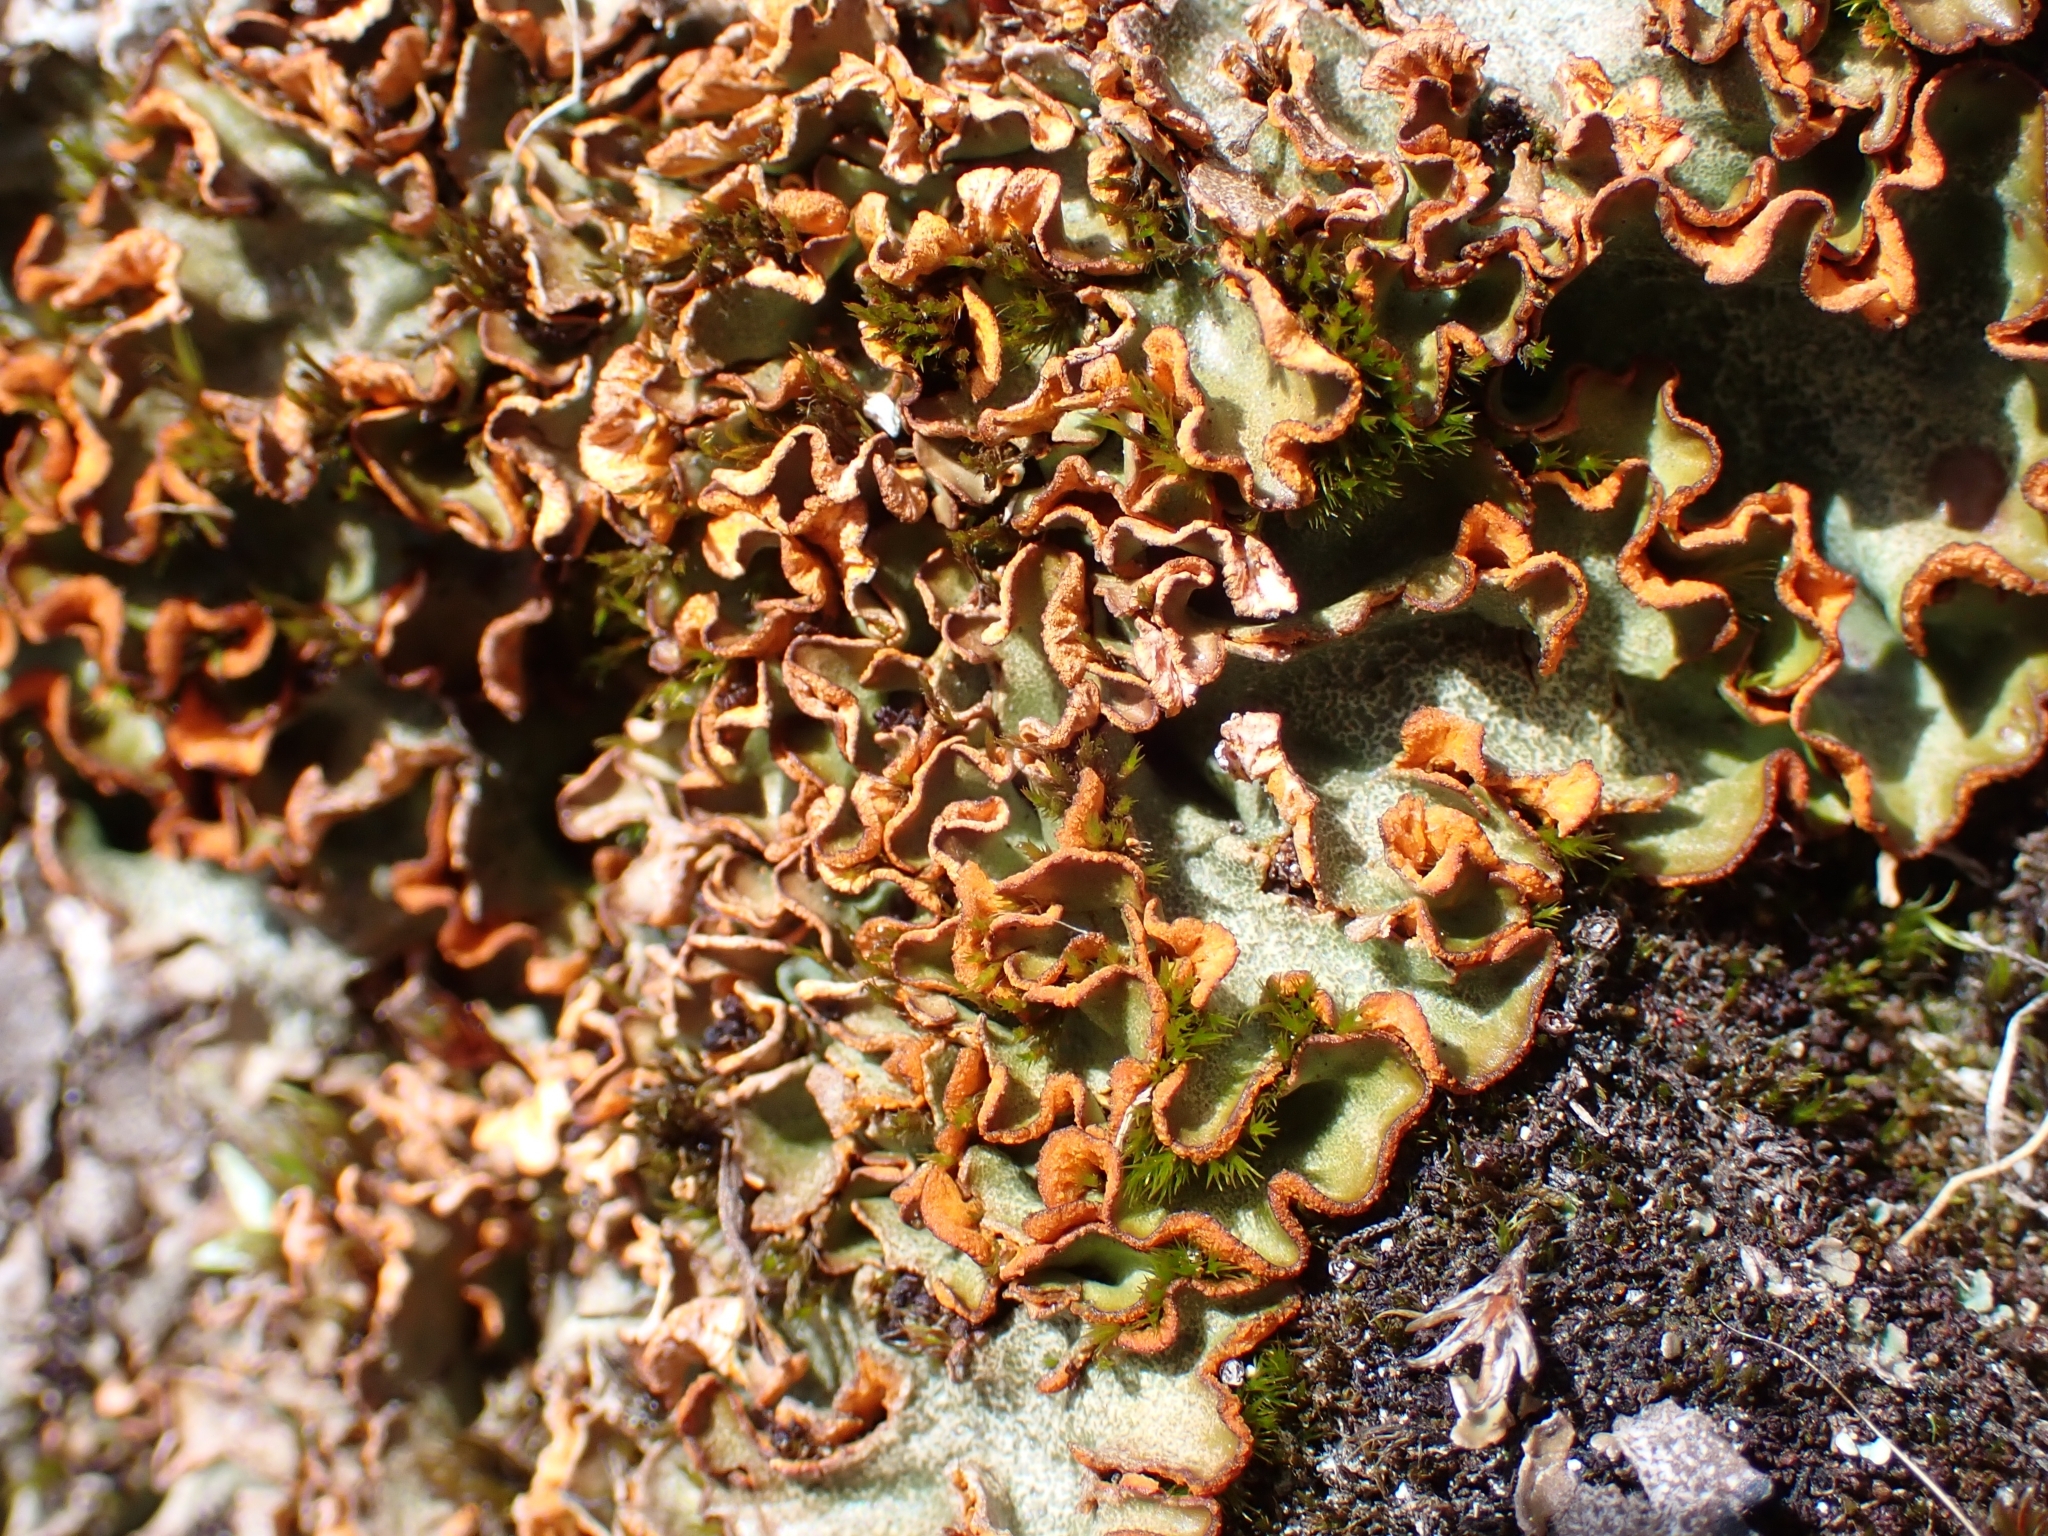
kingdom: Fungi
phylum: Ascomycota
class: Lecanoromycetes
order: Peltigerales
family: Peltigeraceae
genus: Solorina
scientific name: Solorina crocea
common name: Mountain saffron
